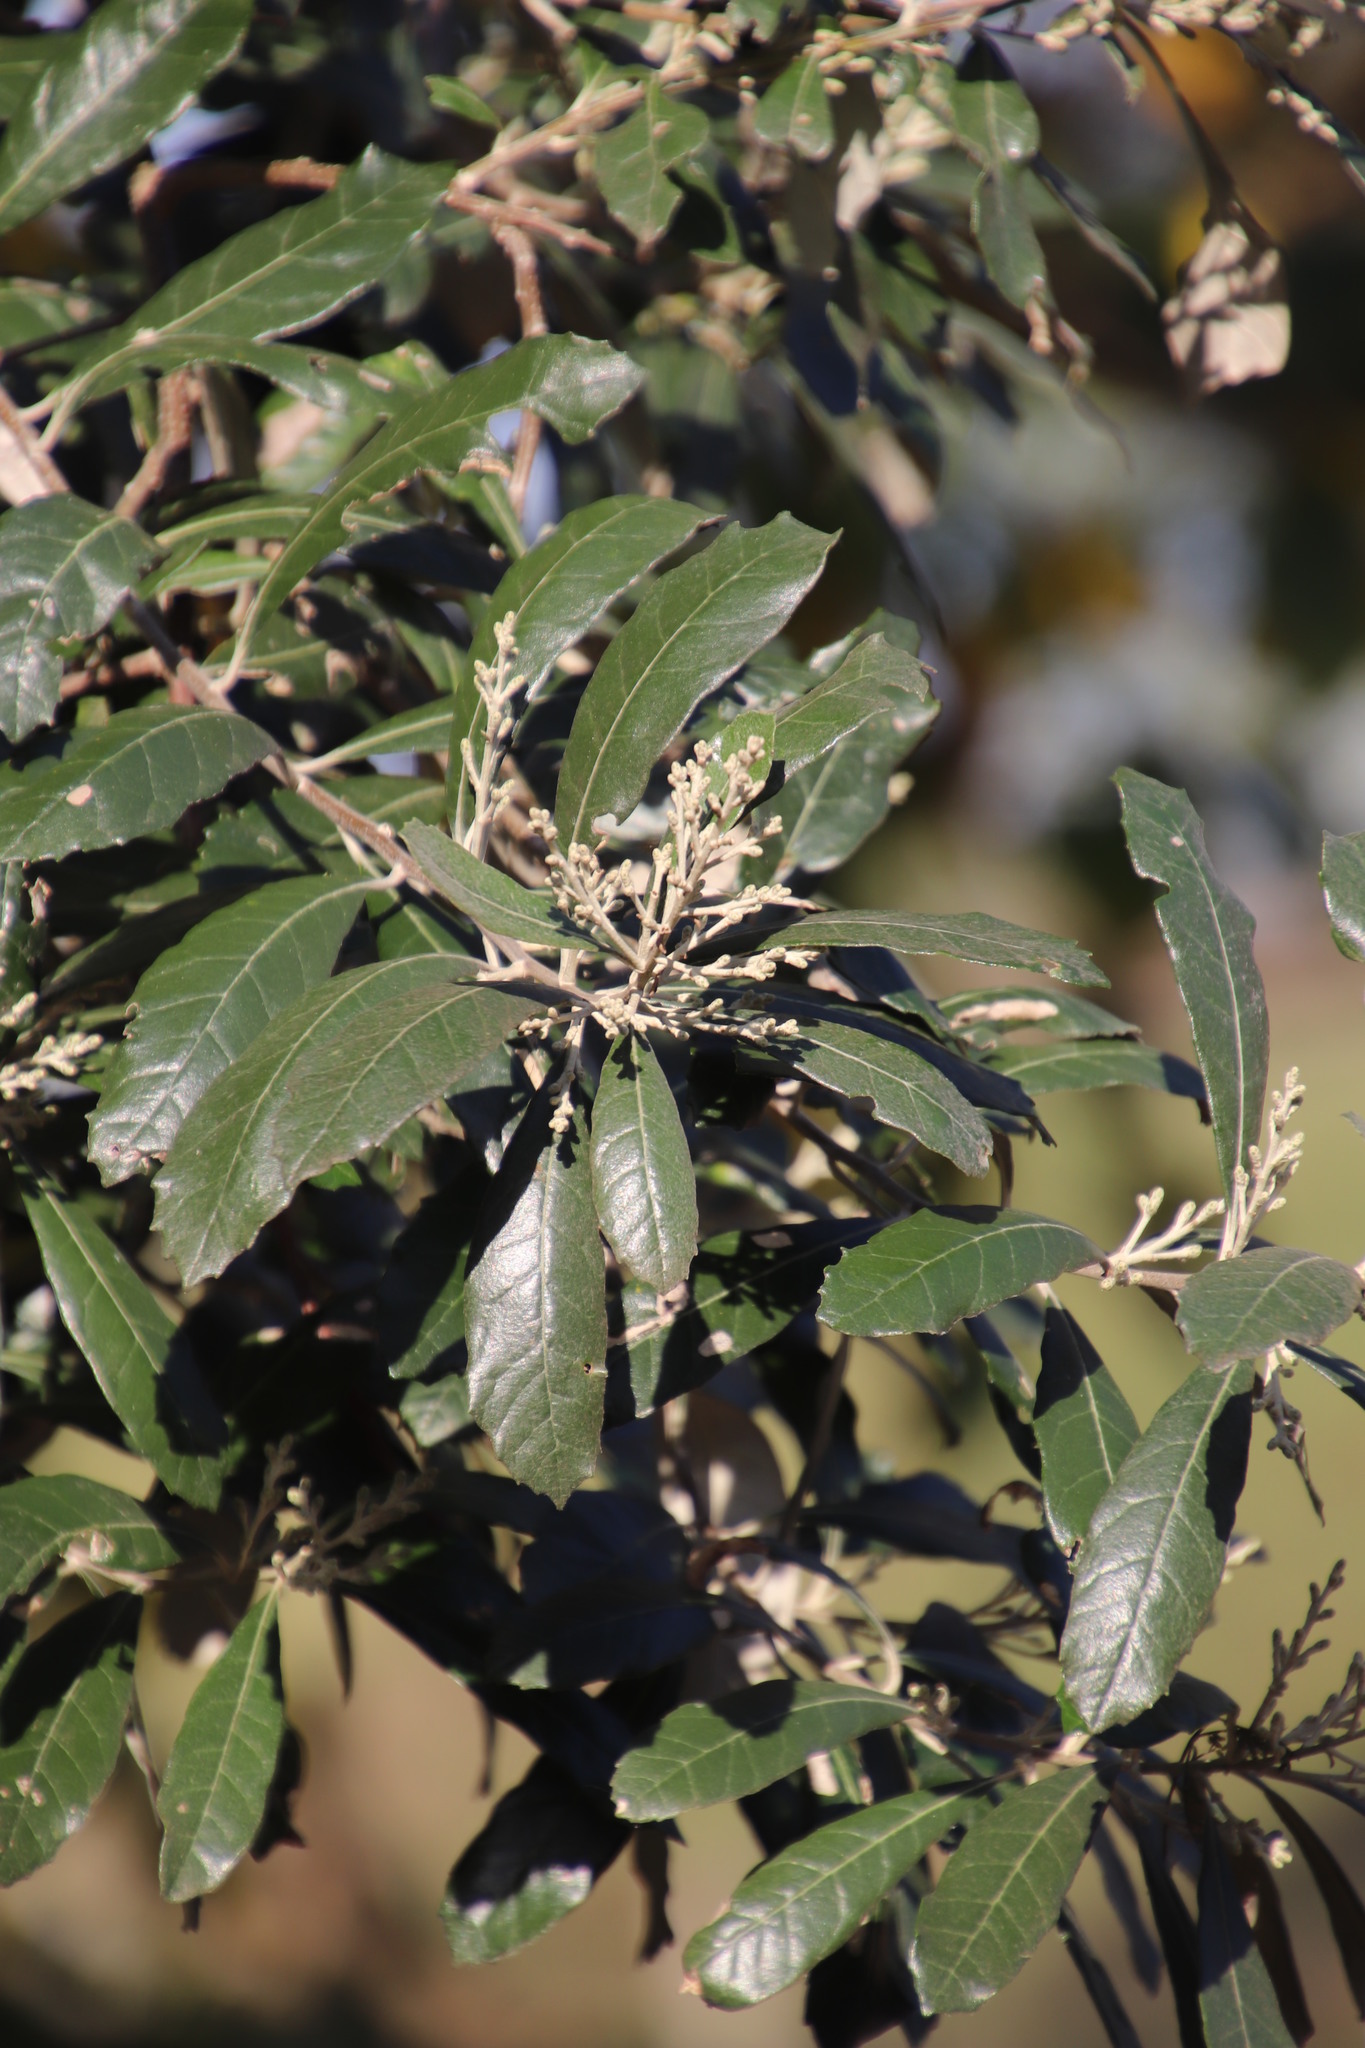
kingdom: Plantae
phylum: Tracheophyta
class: Magnoliopsida
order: Asterales
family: Asteraceae
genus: Brachylaena
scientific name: Brachylaena discolor
